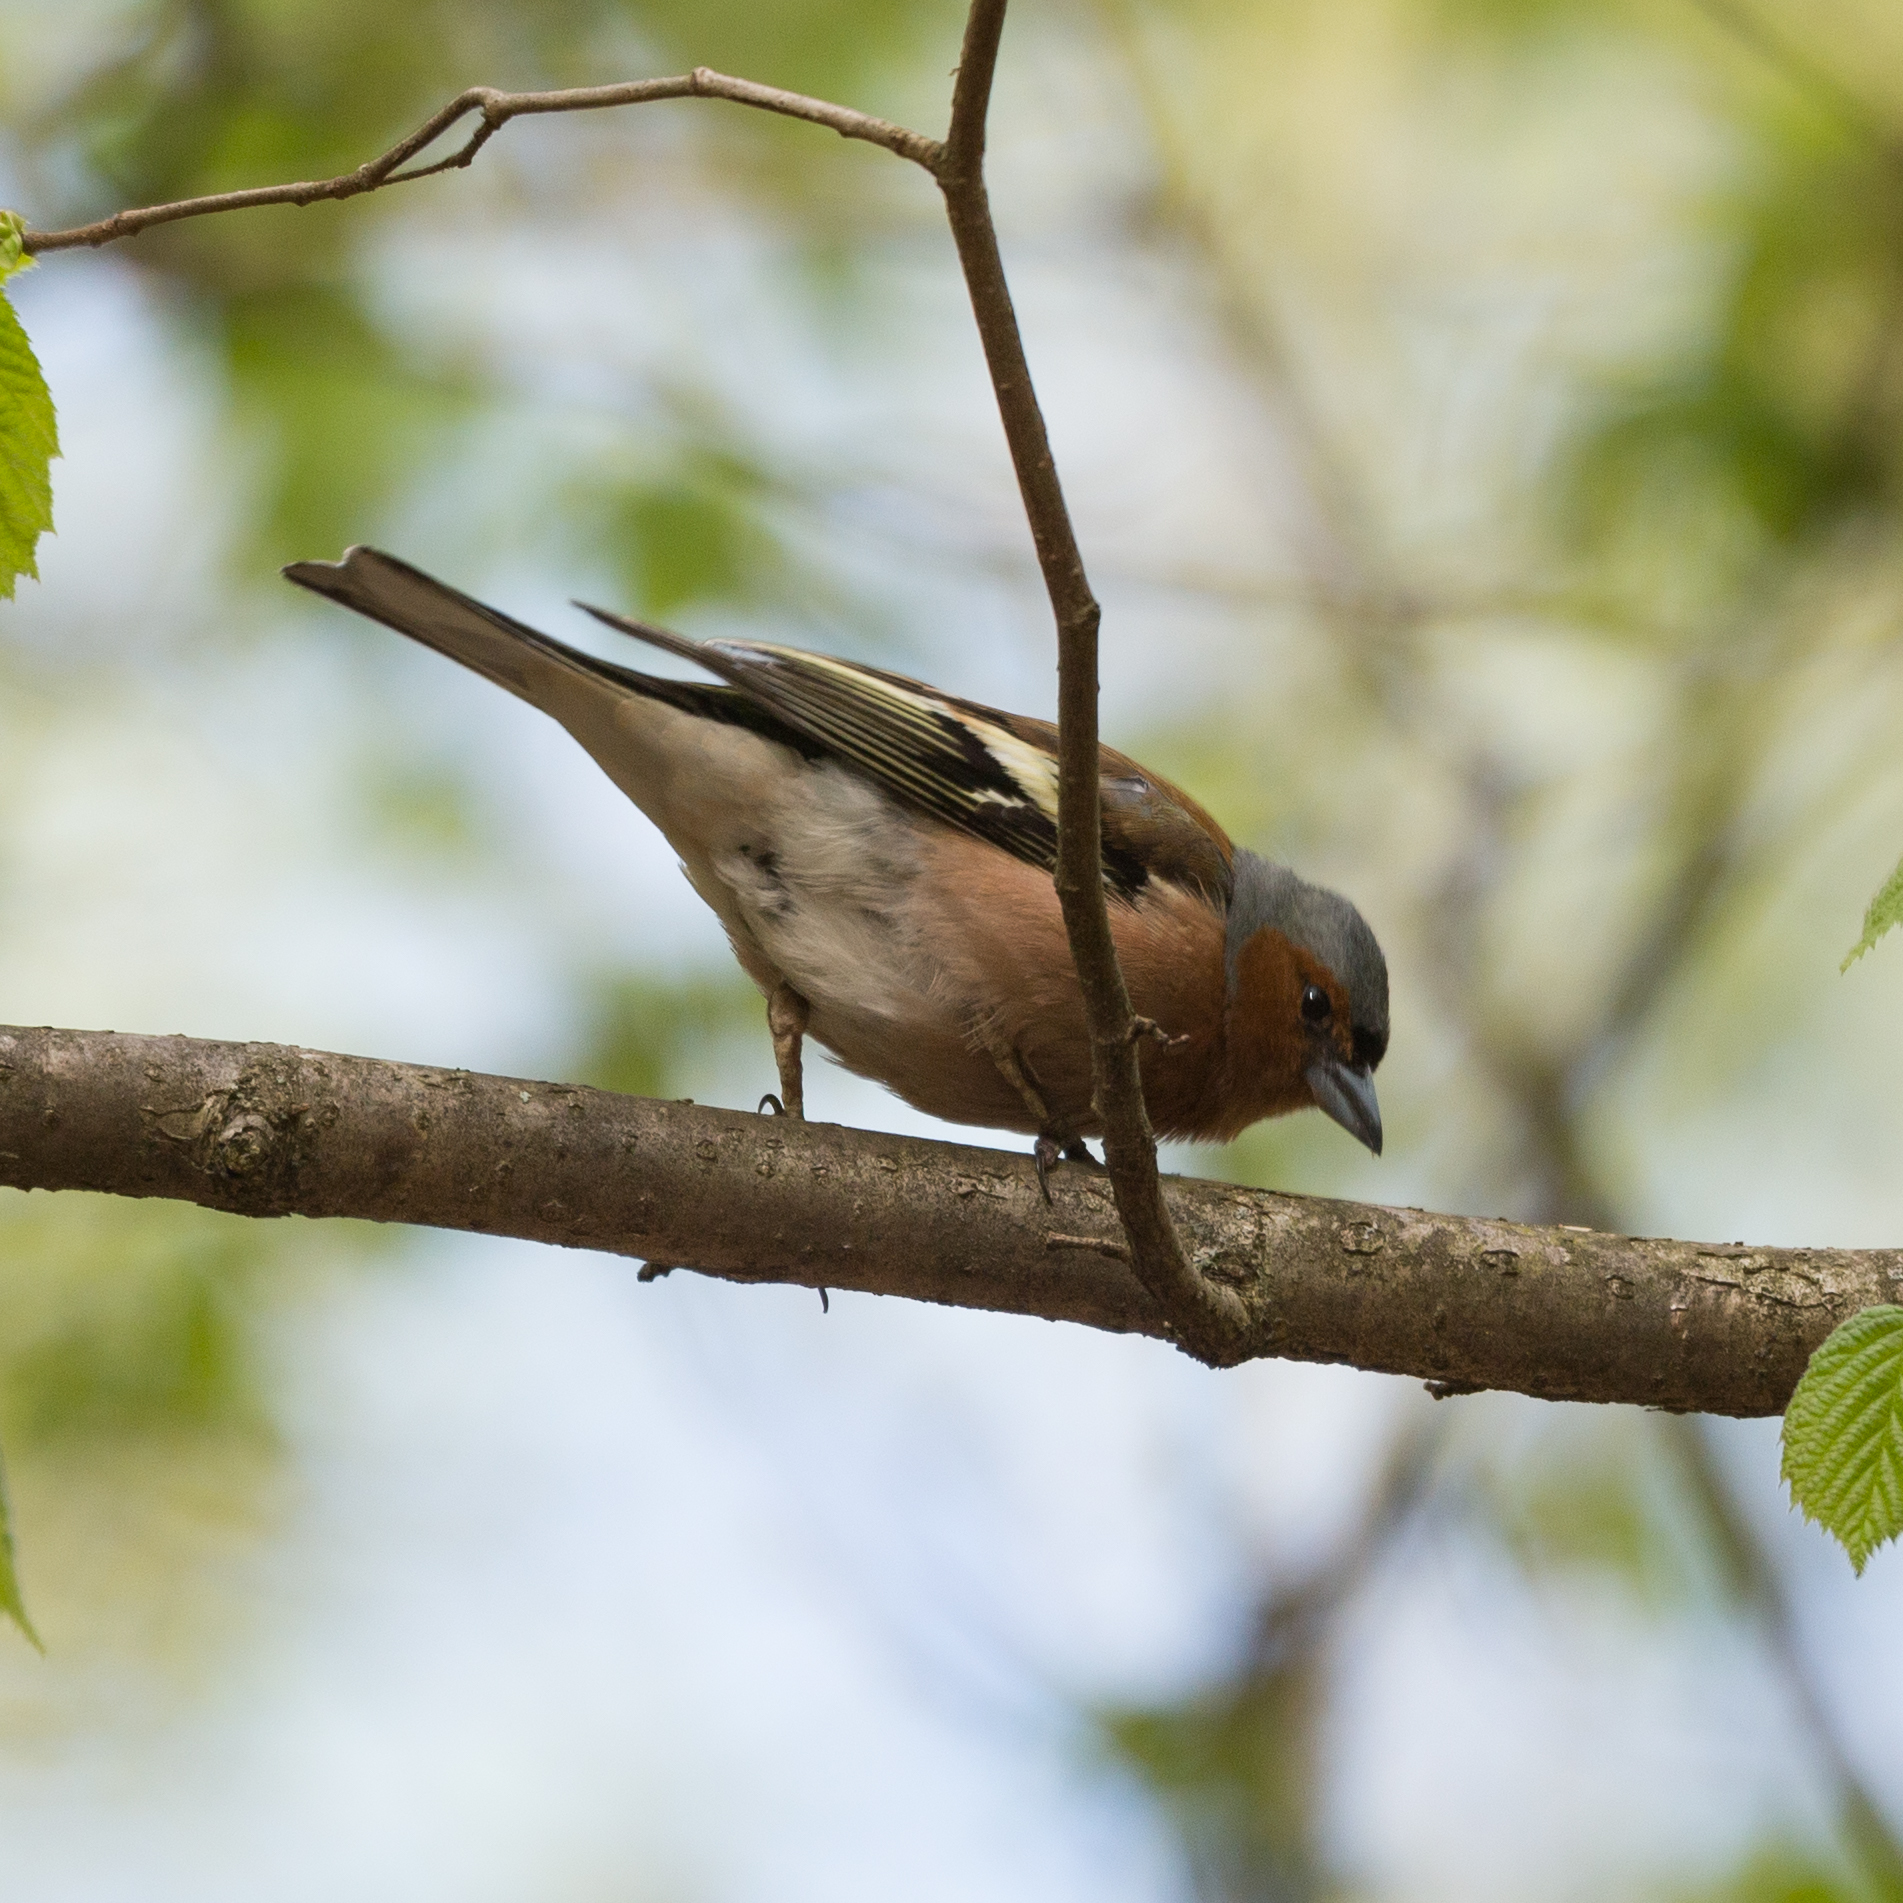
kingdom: Animalia
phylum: Chordata
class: Aves
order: Passeriformes
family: Fringillidae
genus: Fringilla
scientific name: Fringilla coelebs
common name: Common chaffinch
